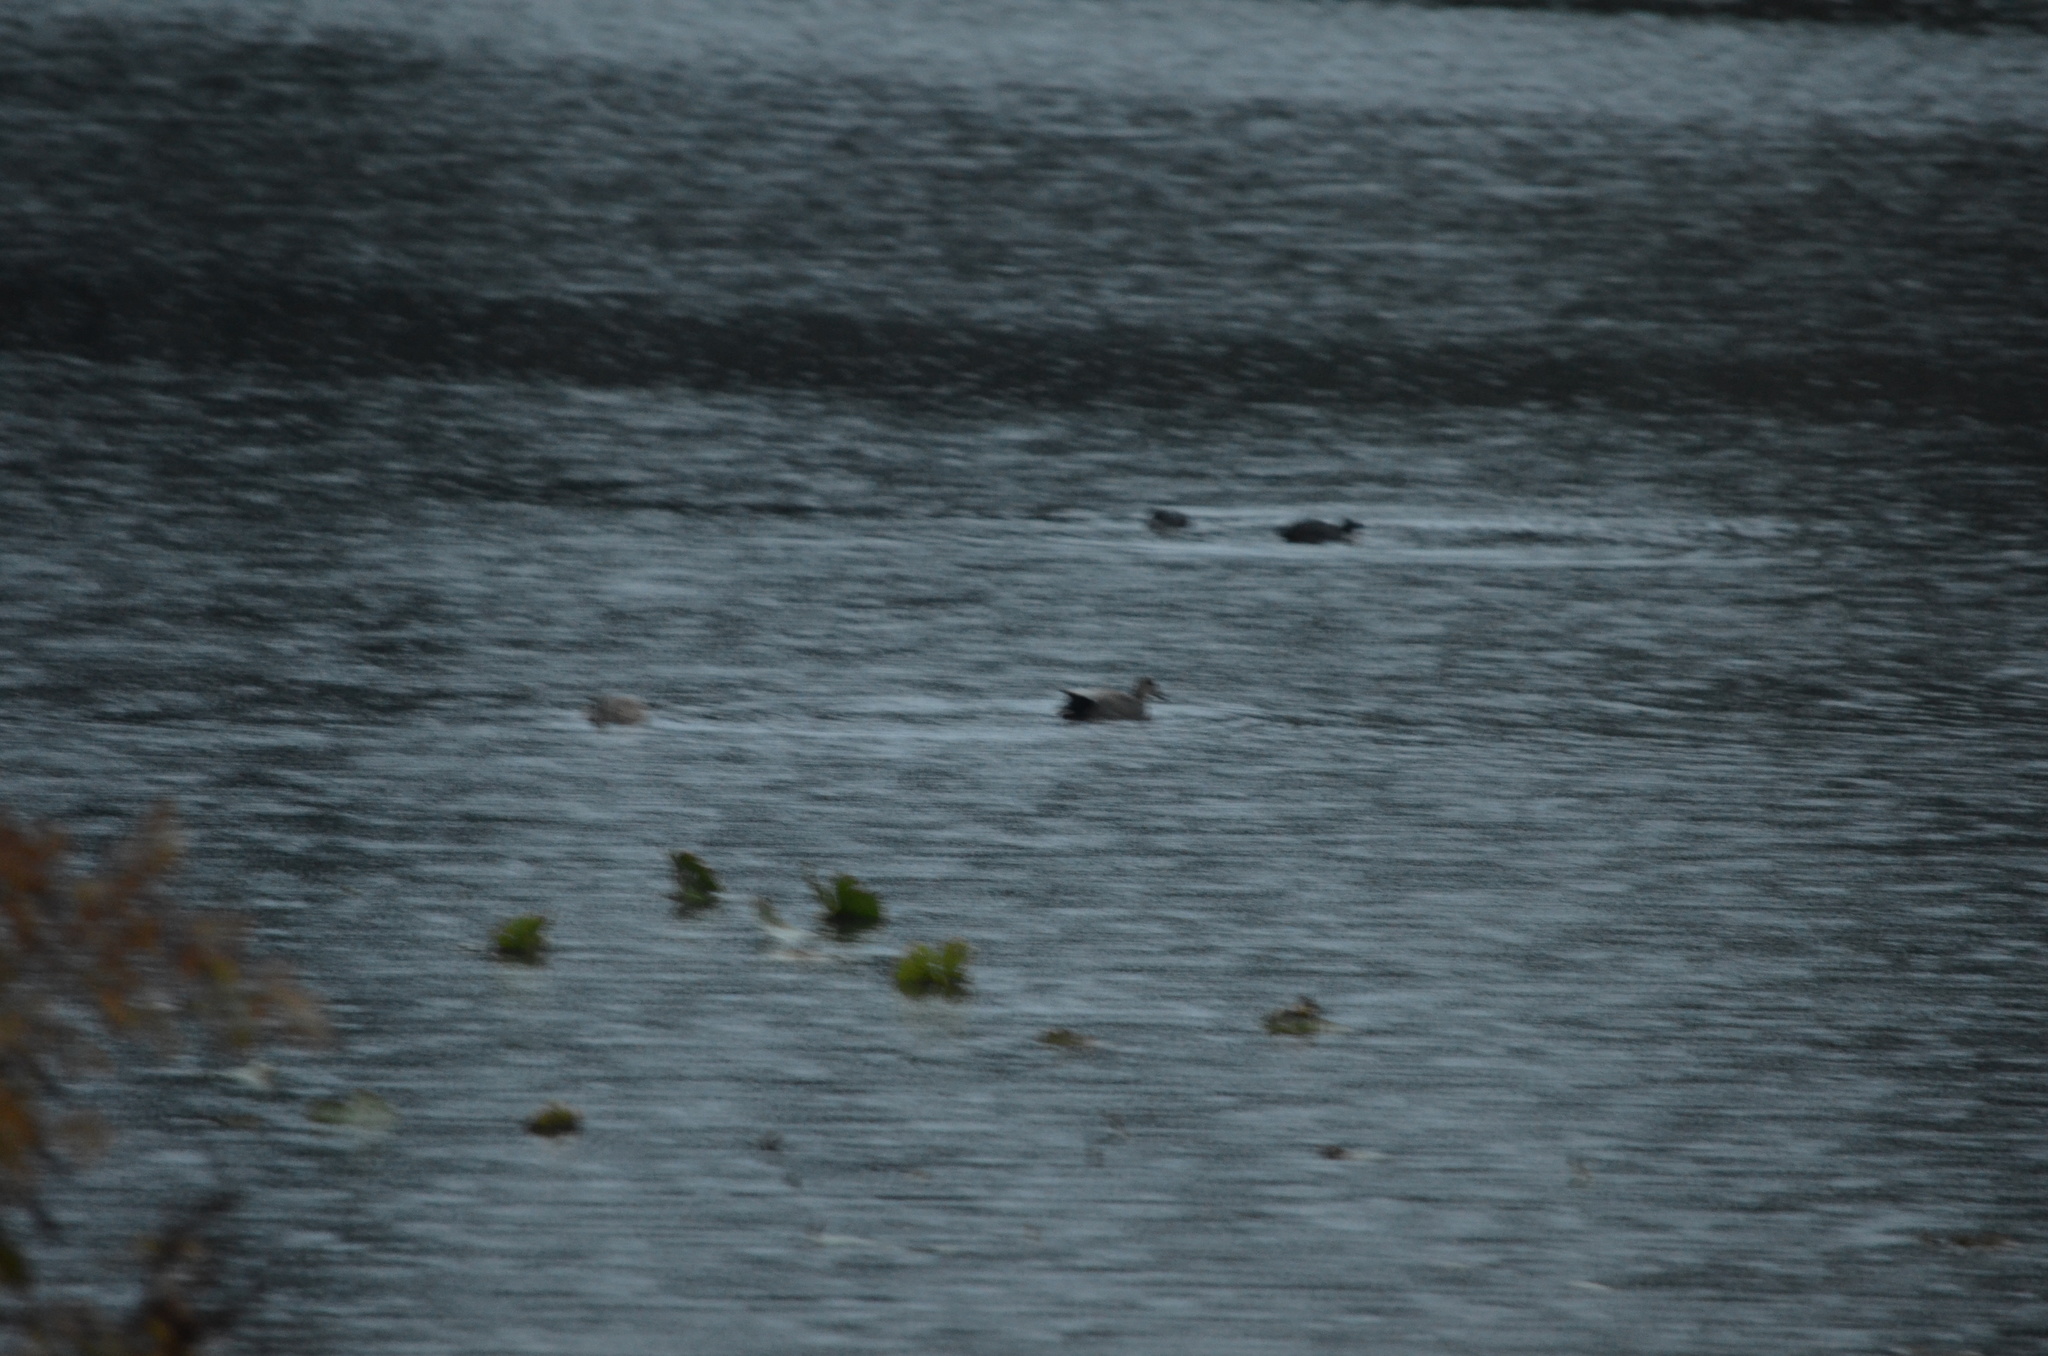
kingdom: Animalia
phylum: Chordata
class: Aves
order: Anseriformes
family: Anatidae
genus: Mareca
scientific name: Mareca strepera
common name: Gadwall
